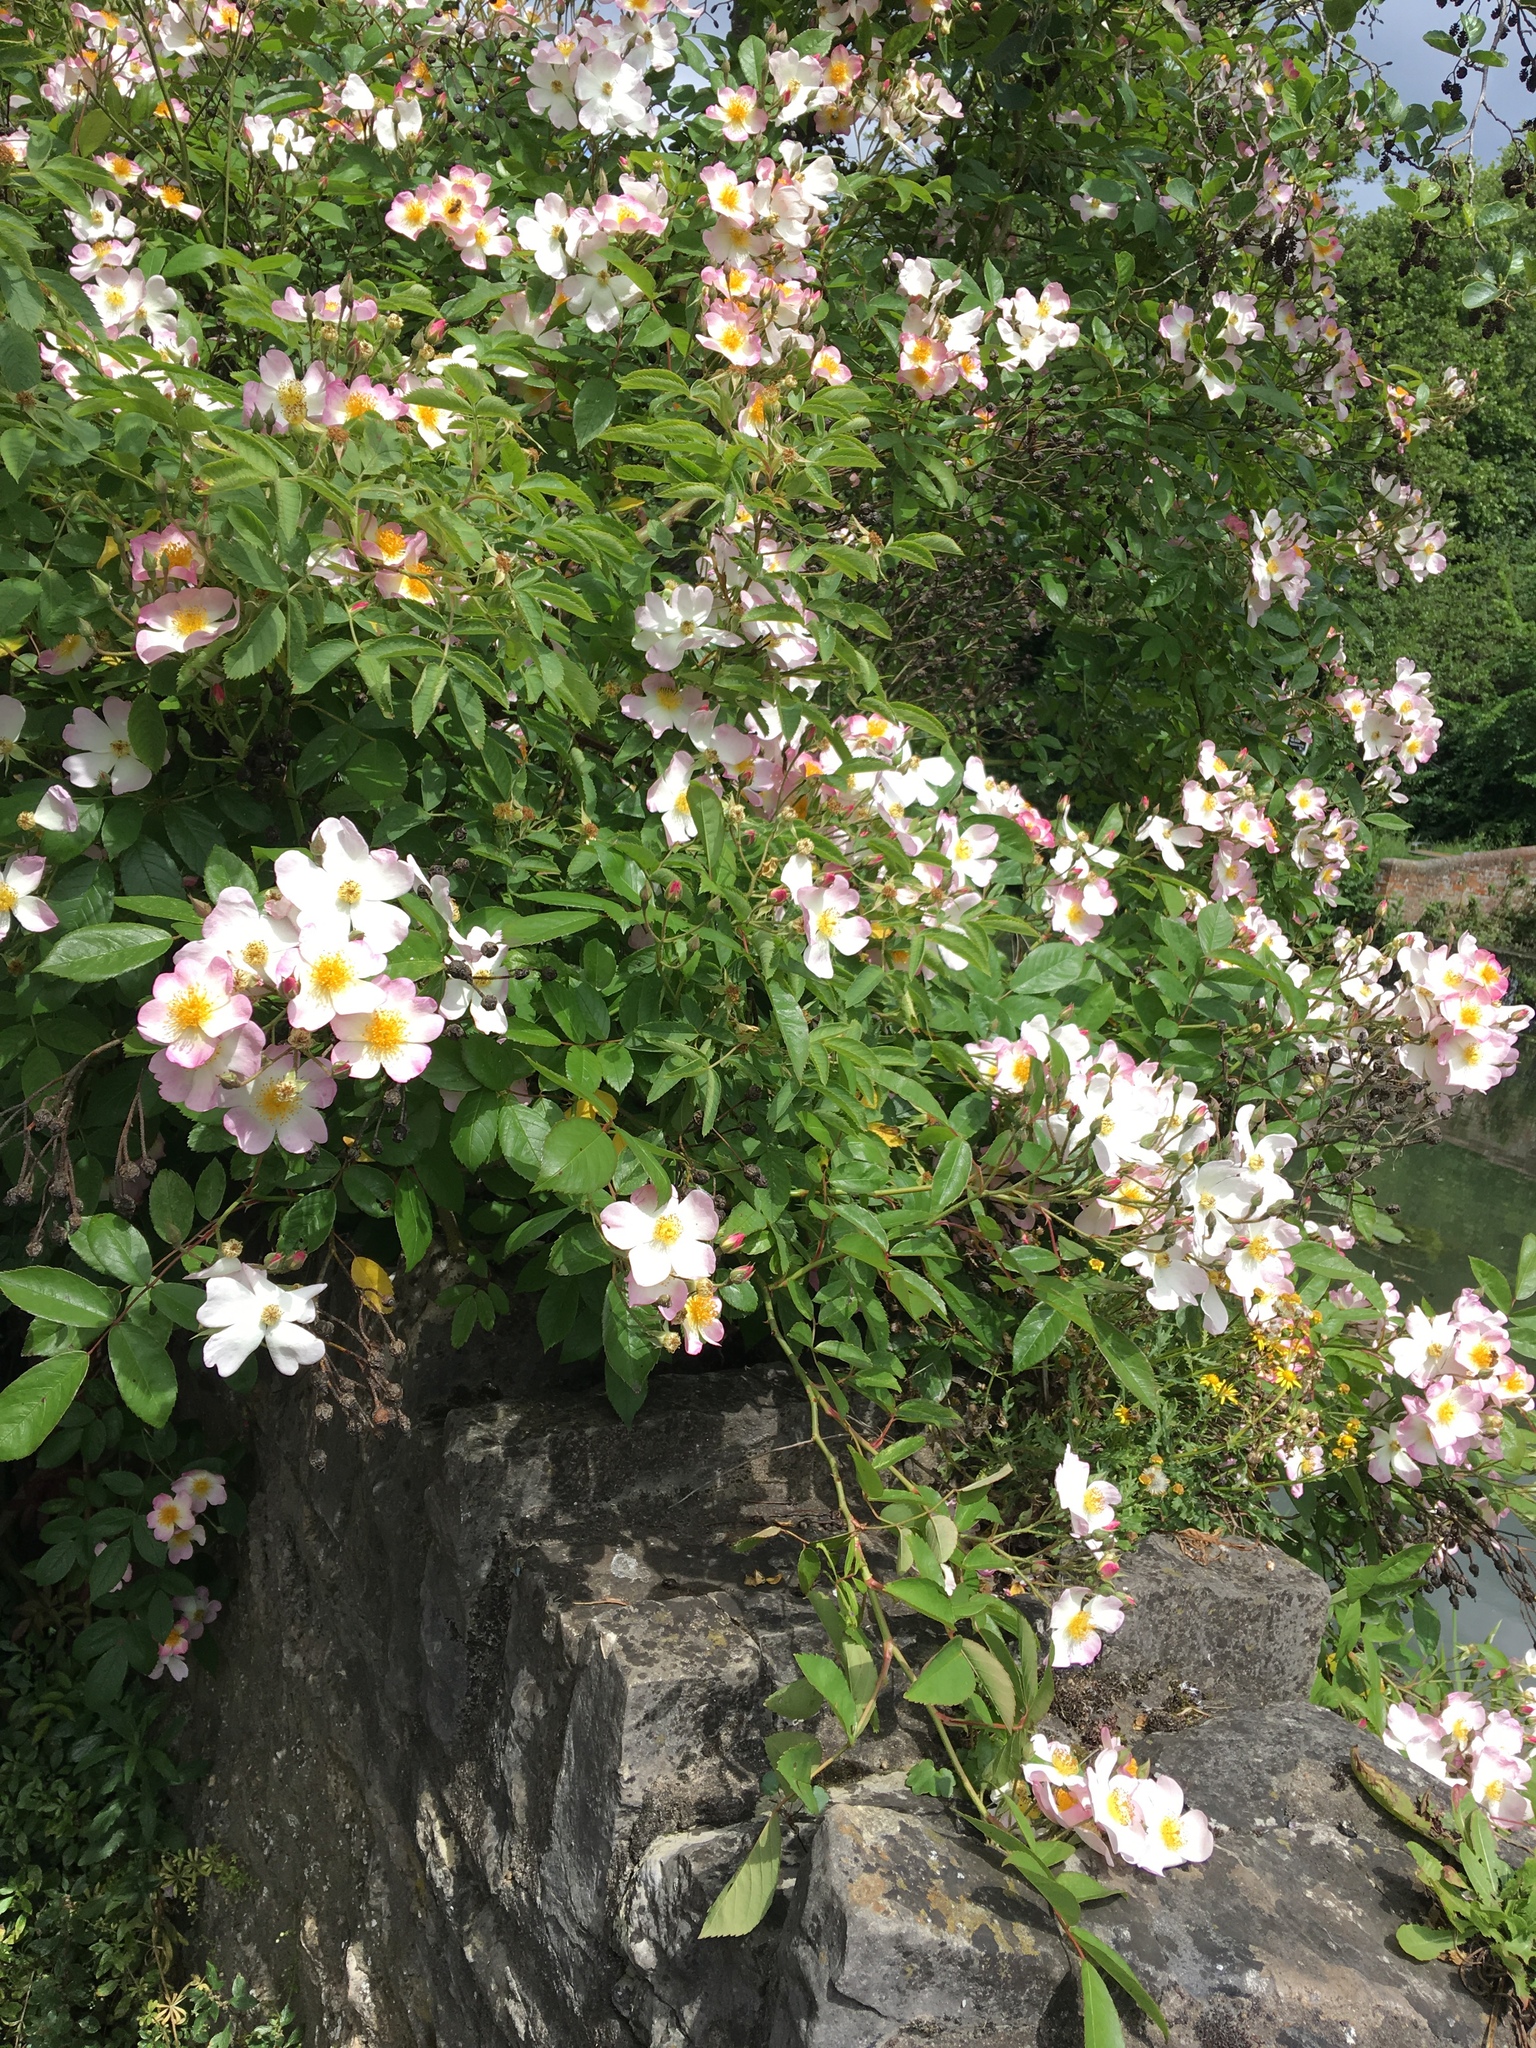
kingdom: Plantae
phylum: Tracheophyta
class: Magnoliopsida
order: Rosales
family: Rosaceae
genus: Rosa
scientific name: Rosa multiflora
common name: Multiflora rose
